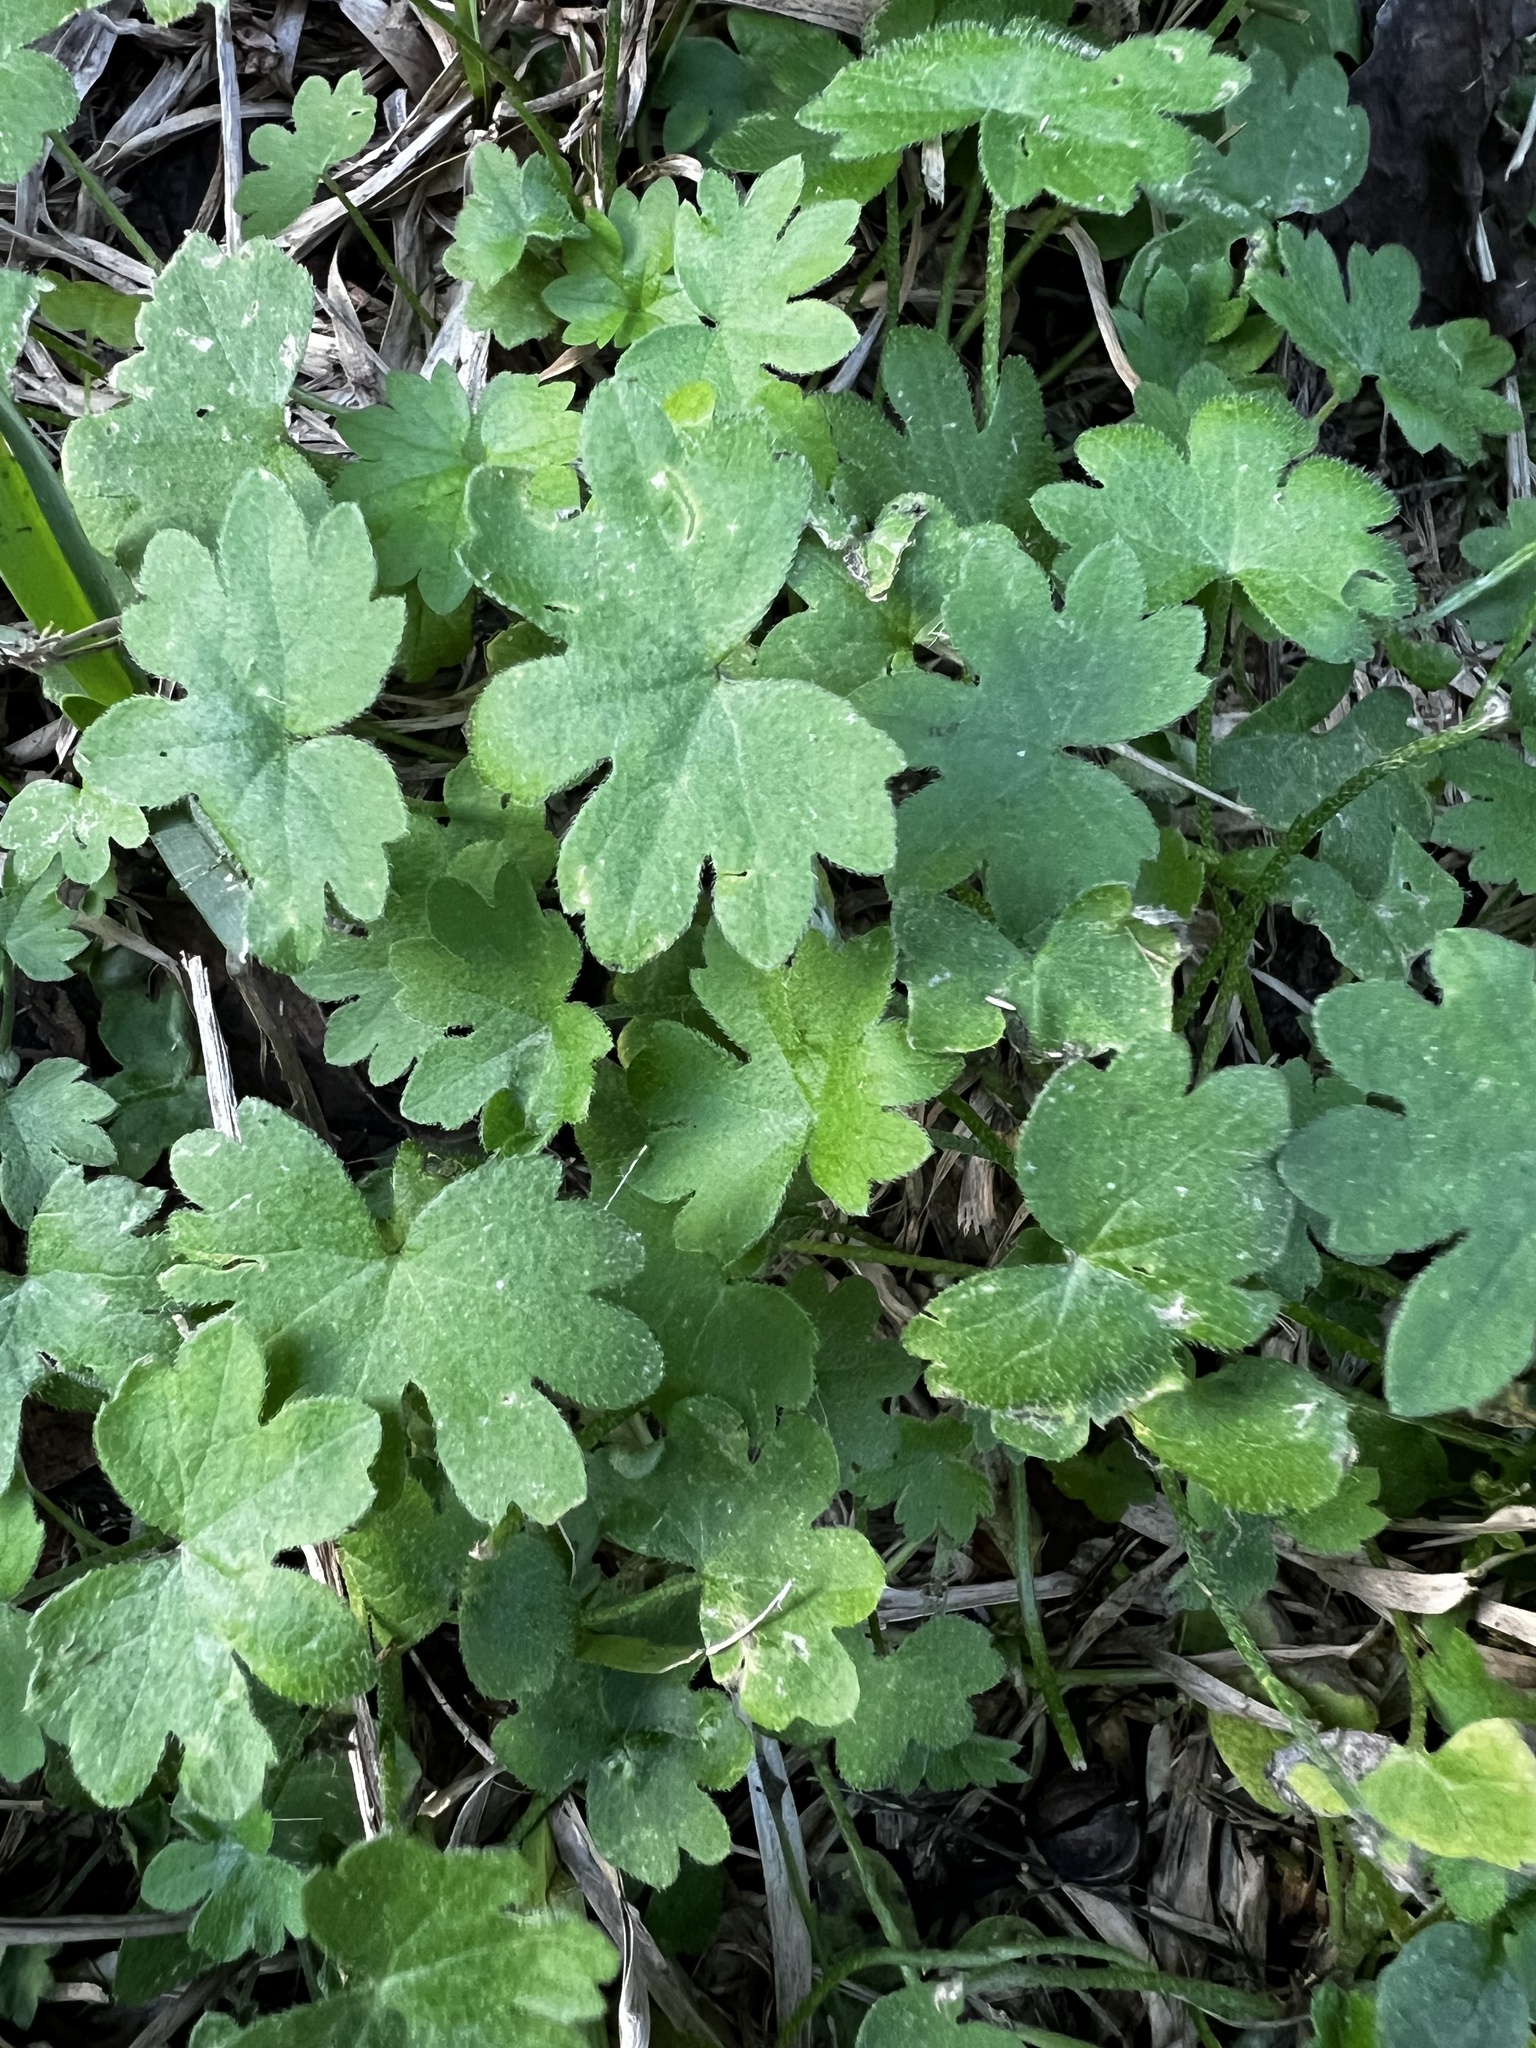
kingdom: Plantae
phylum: Tracheophyta
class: Magnoliopsida
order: Apiales
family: Apiaceae
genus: Bowlesia
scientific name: Bowlesia incana
